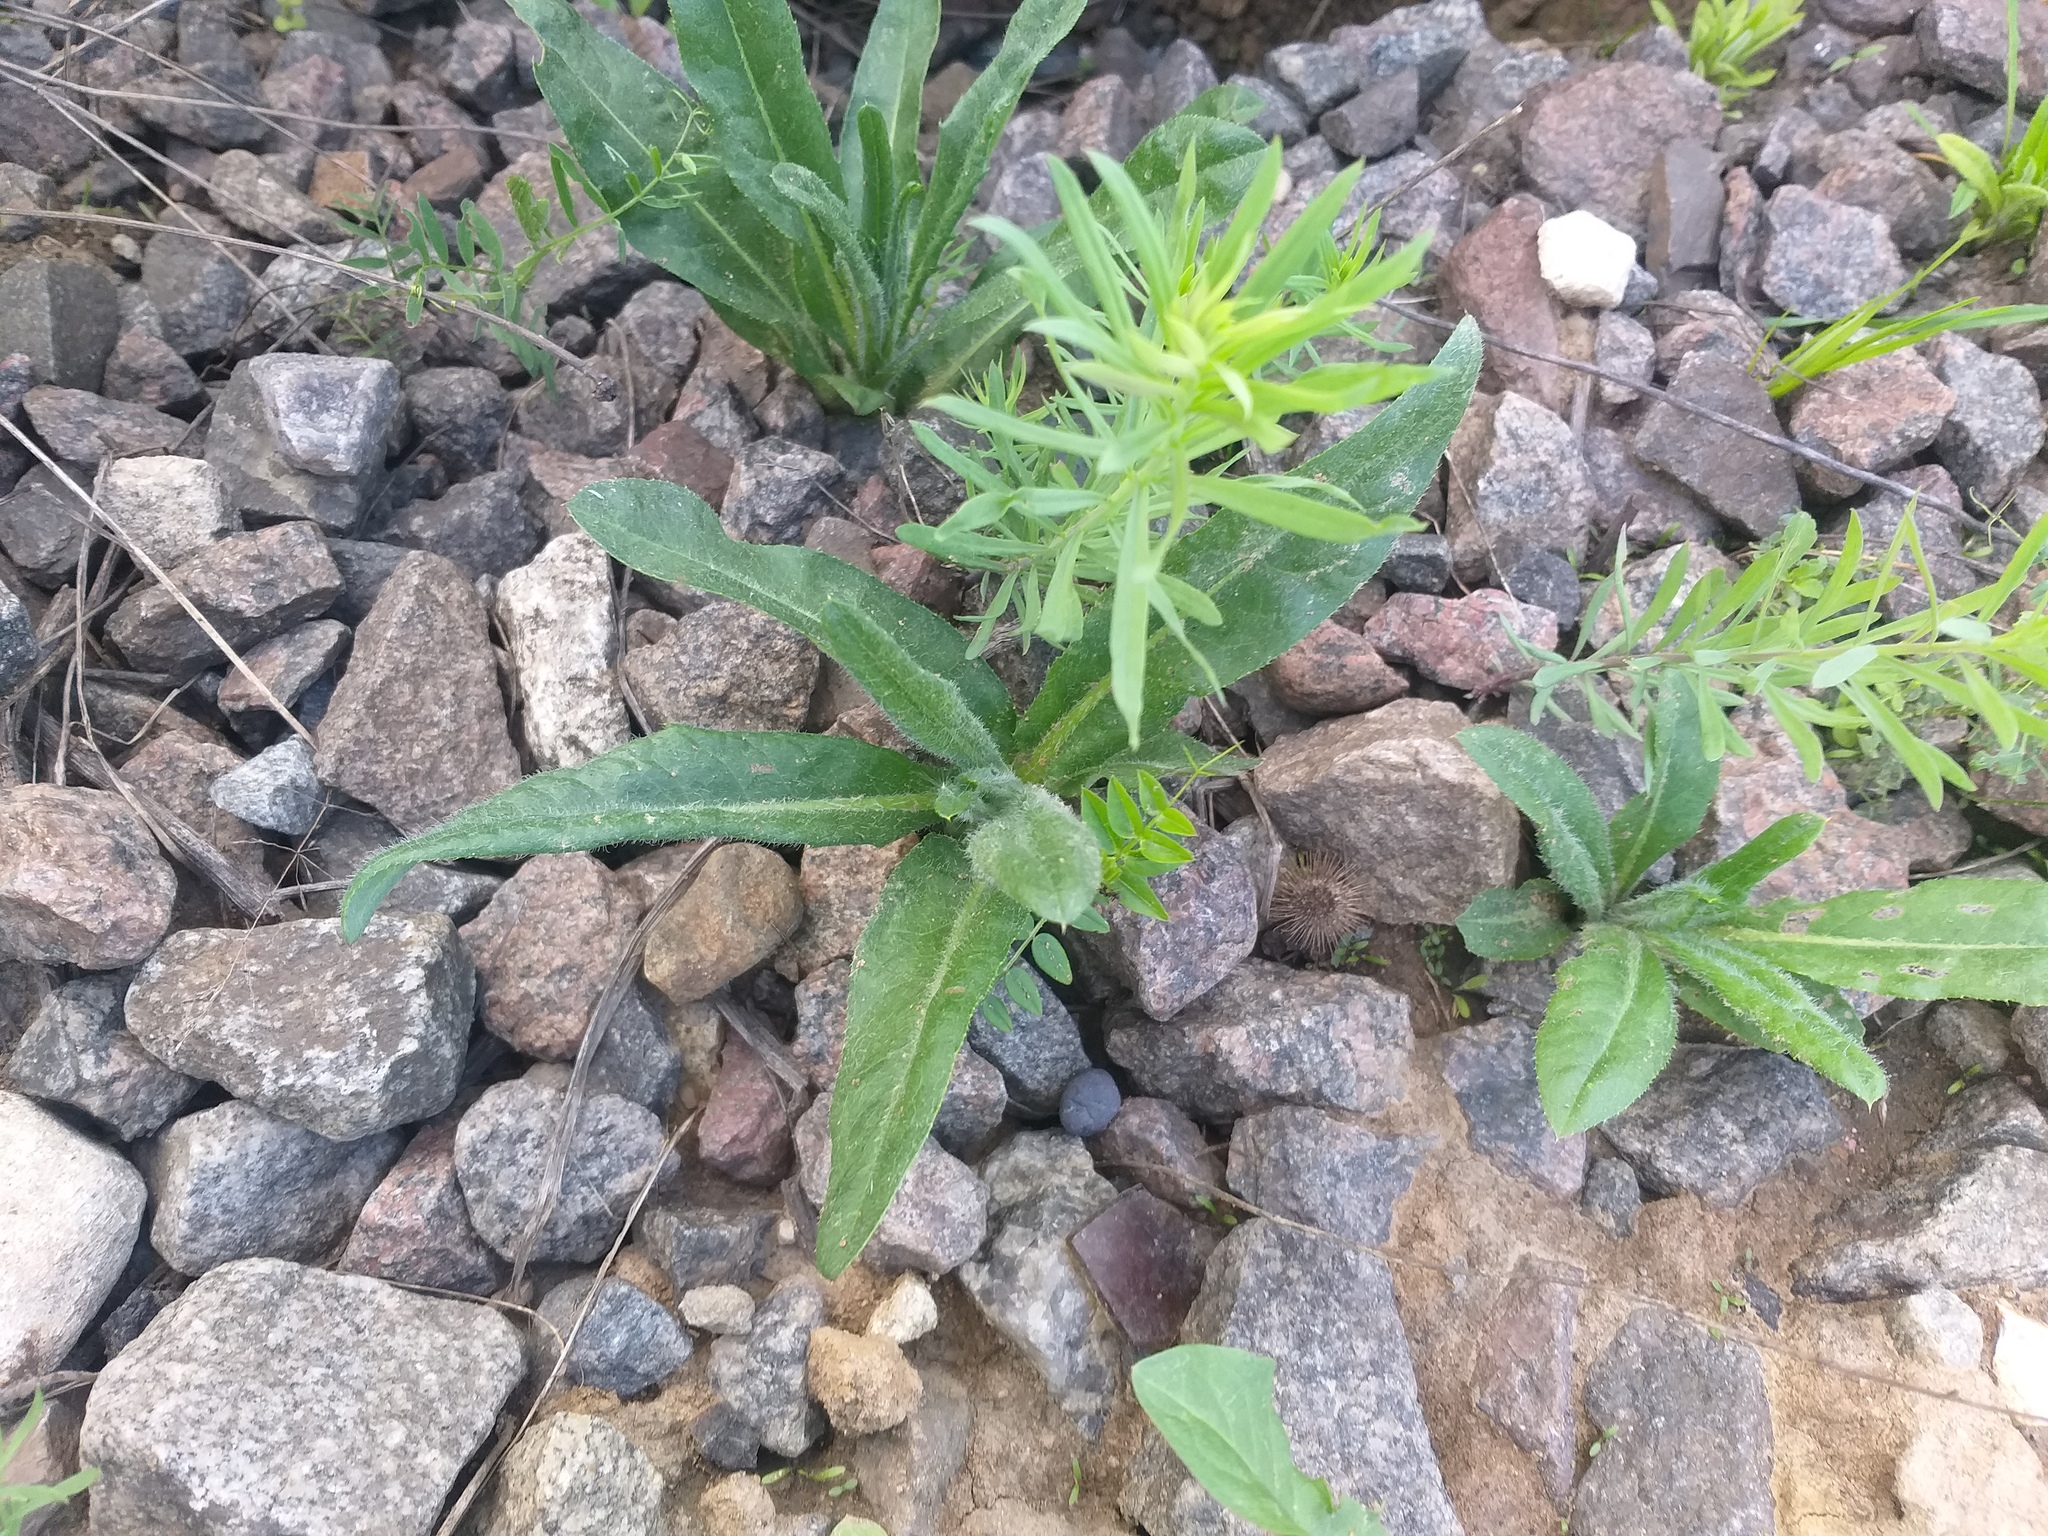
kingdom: Plantae
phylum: Tracheophyta
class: Magnoliopsida
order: Asterales
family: Asteraceae
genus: Cirsium
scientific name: Cirsium arvense
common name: Creeping thistle
